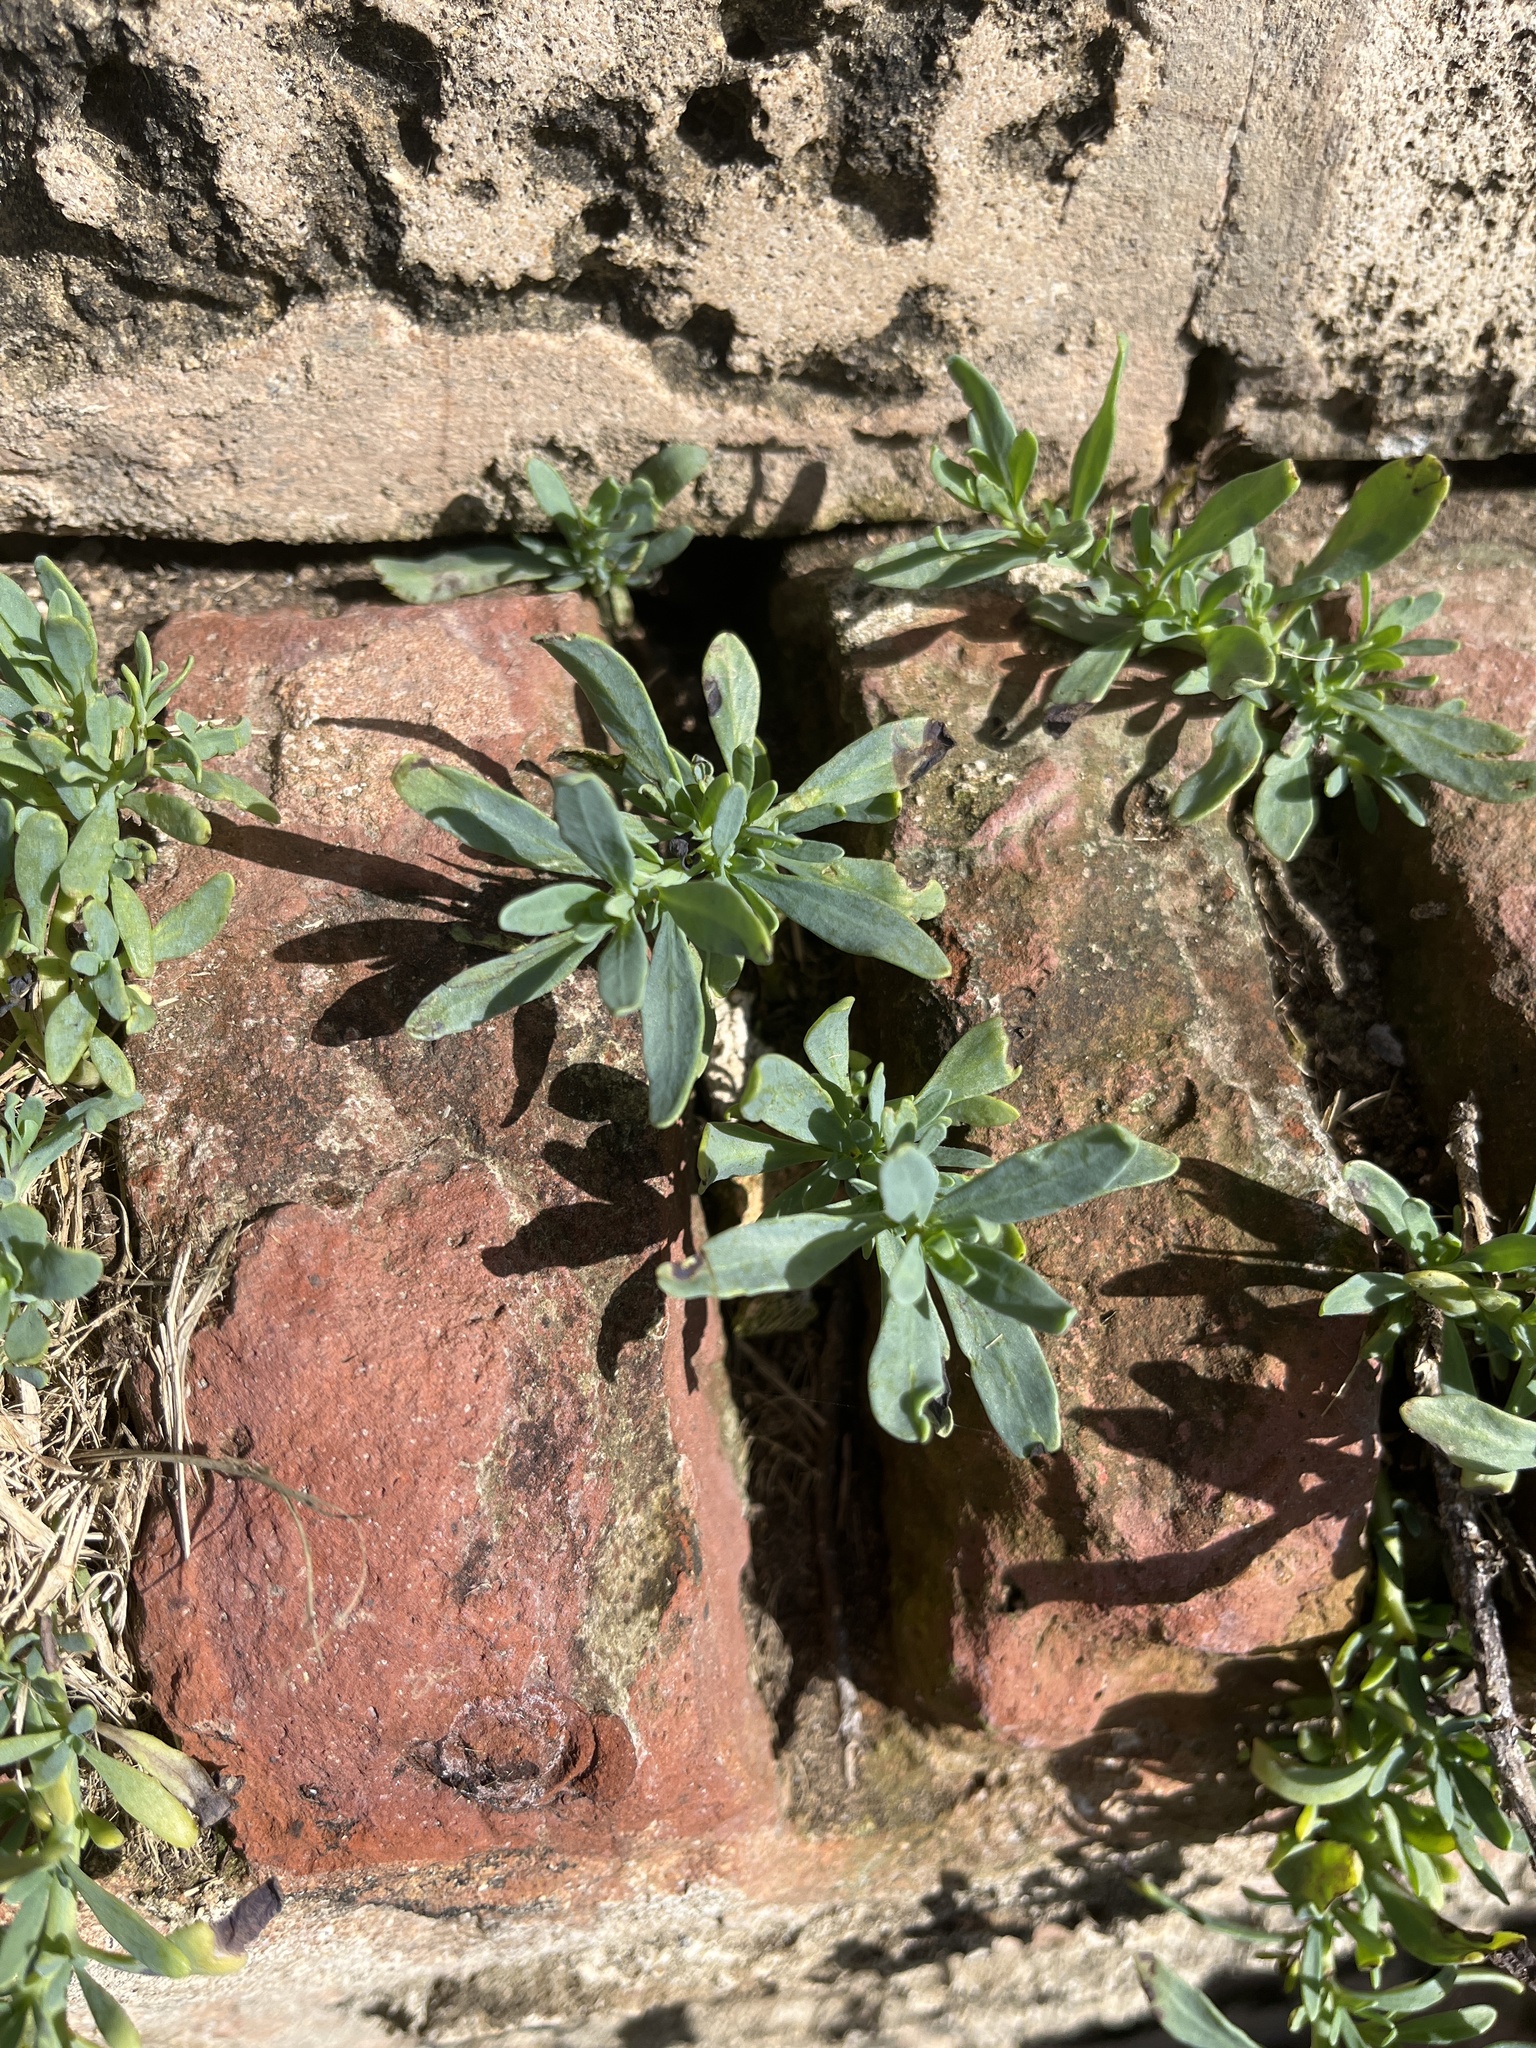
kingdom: Plantae
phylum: Tracheophyta
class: Magnoliopsida
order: Boraginales
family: Heliotropiaceae
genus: Heliotropium
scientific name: Heliotropium curassavicum
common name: Seaside heliotrope
